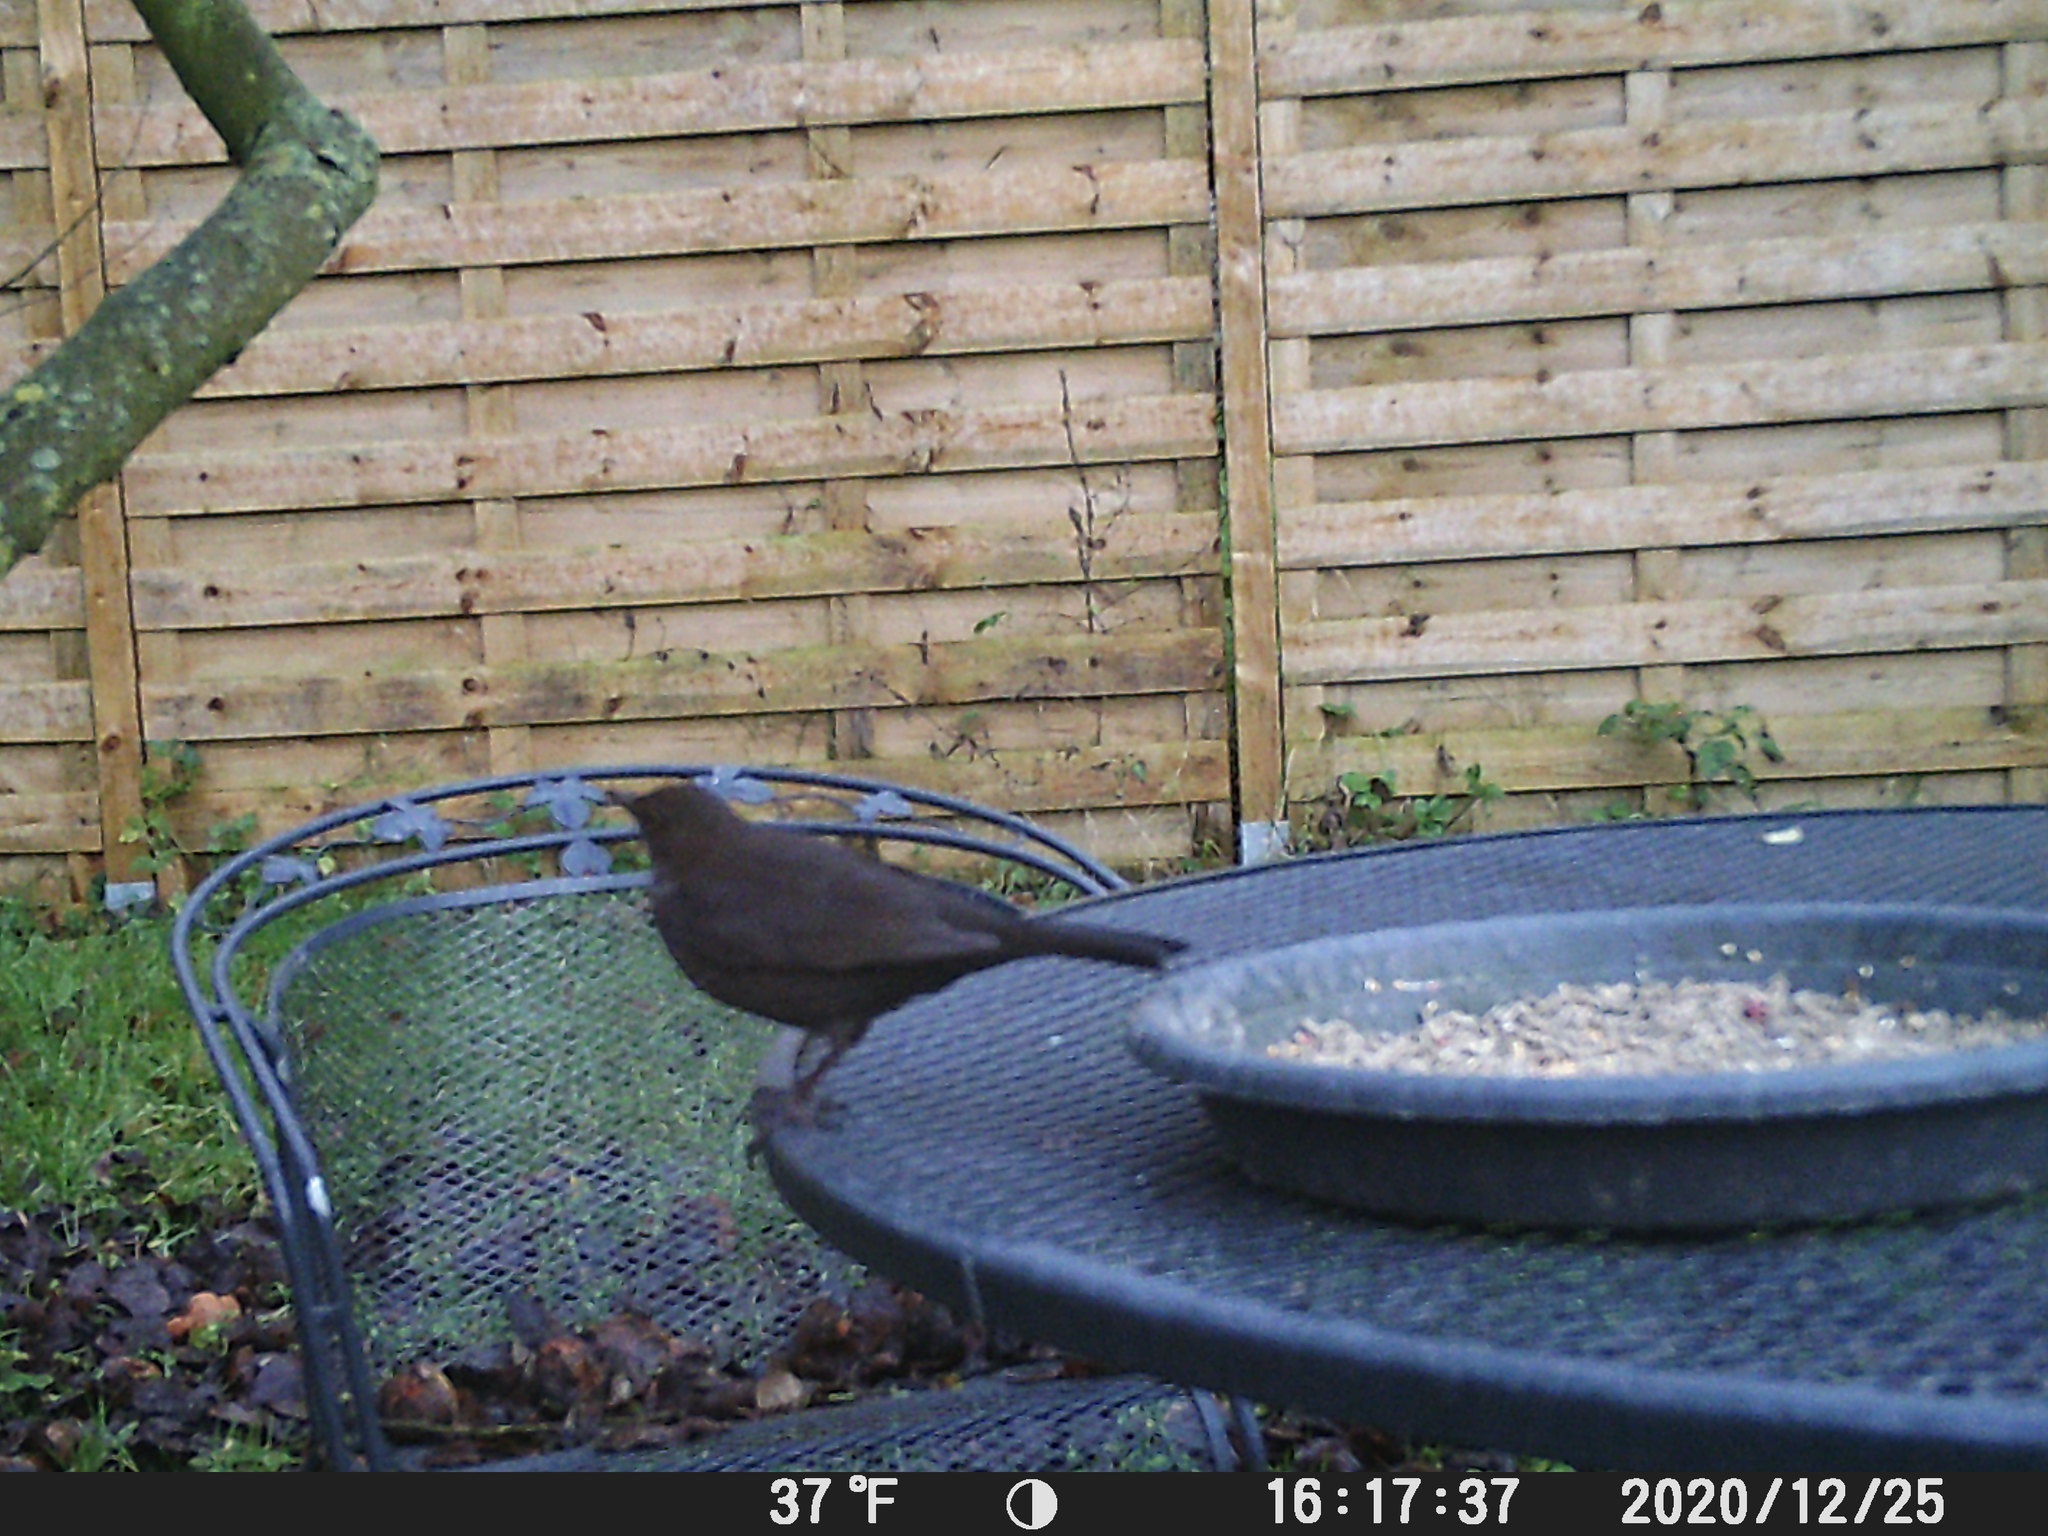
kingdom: Animalia
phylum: Chordata
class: Aves
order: Passeriformes
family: Turdidae
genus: Turdus
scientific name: Turdus merula
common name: Common blackbird
